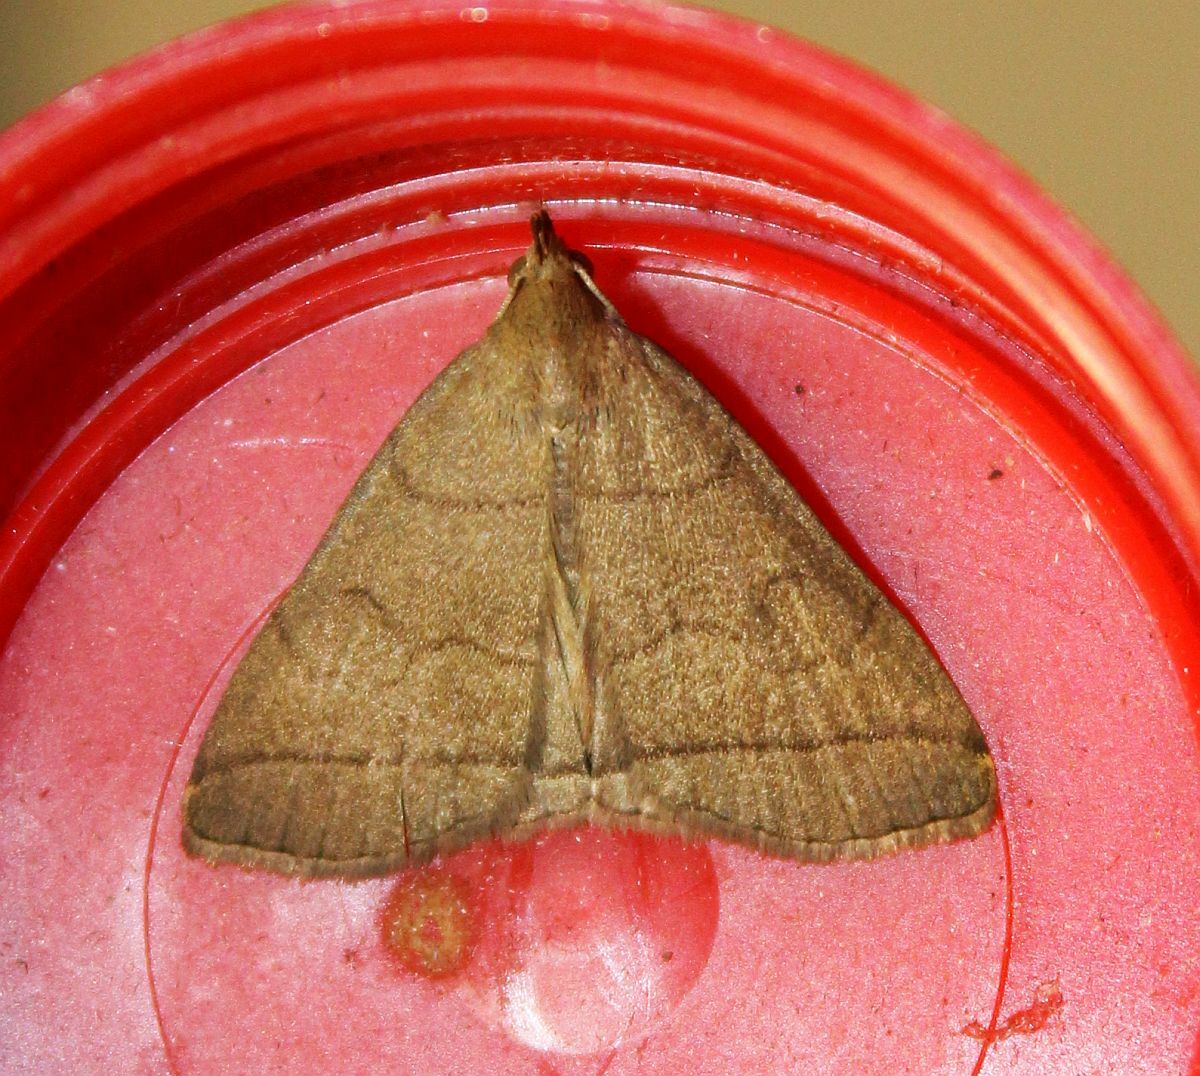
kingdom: Animalia
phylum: Arthropoda
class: Insecta
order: Lepidoptera
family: Erebidae
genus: Herminia
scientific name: Herminia tarsipennalis
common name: Fan-foot
